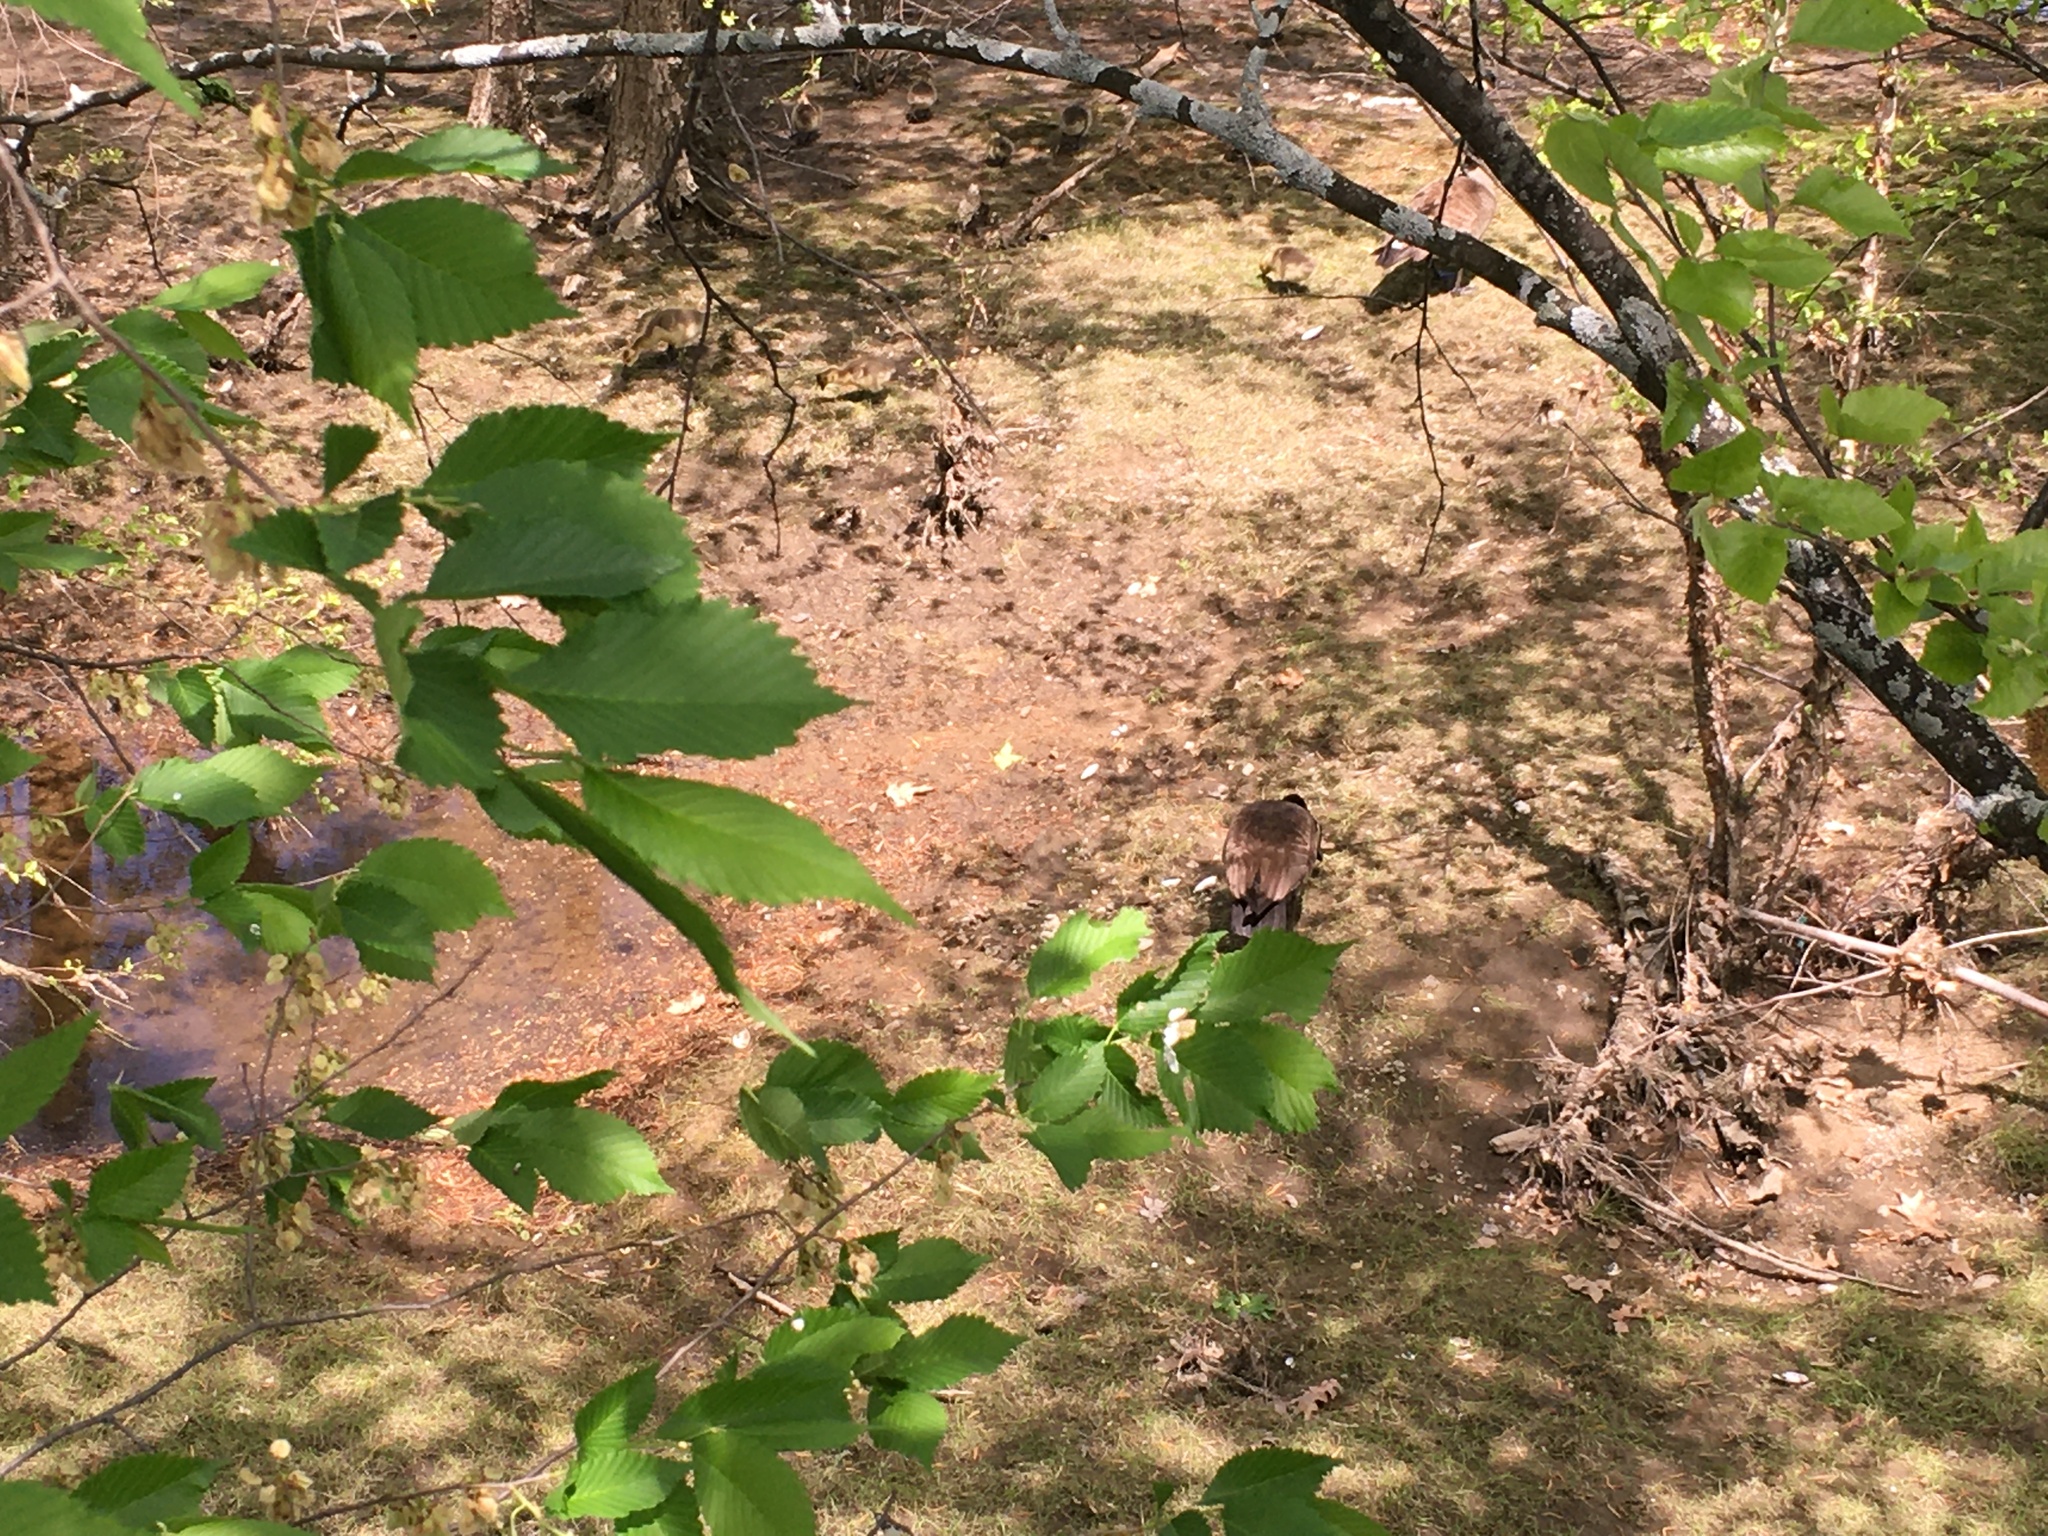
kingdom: Animalia
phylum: Chordata
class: Aves
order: Anseriformes
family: Anatidae
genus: Branta
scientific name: Branta canadensis
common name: Canada goose
